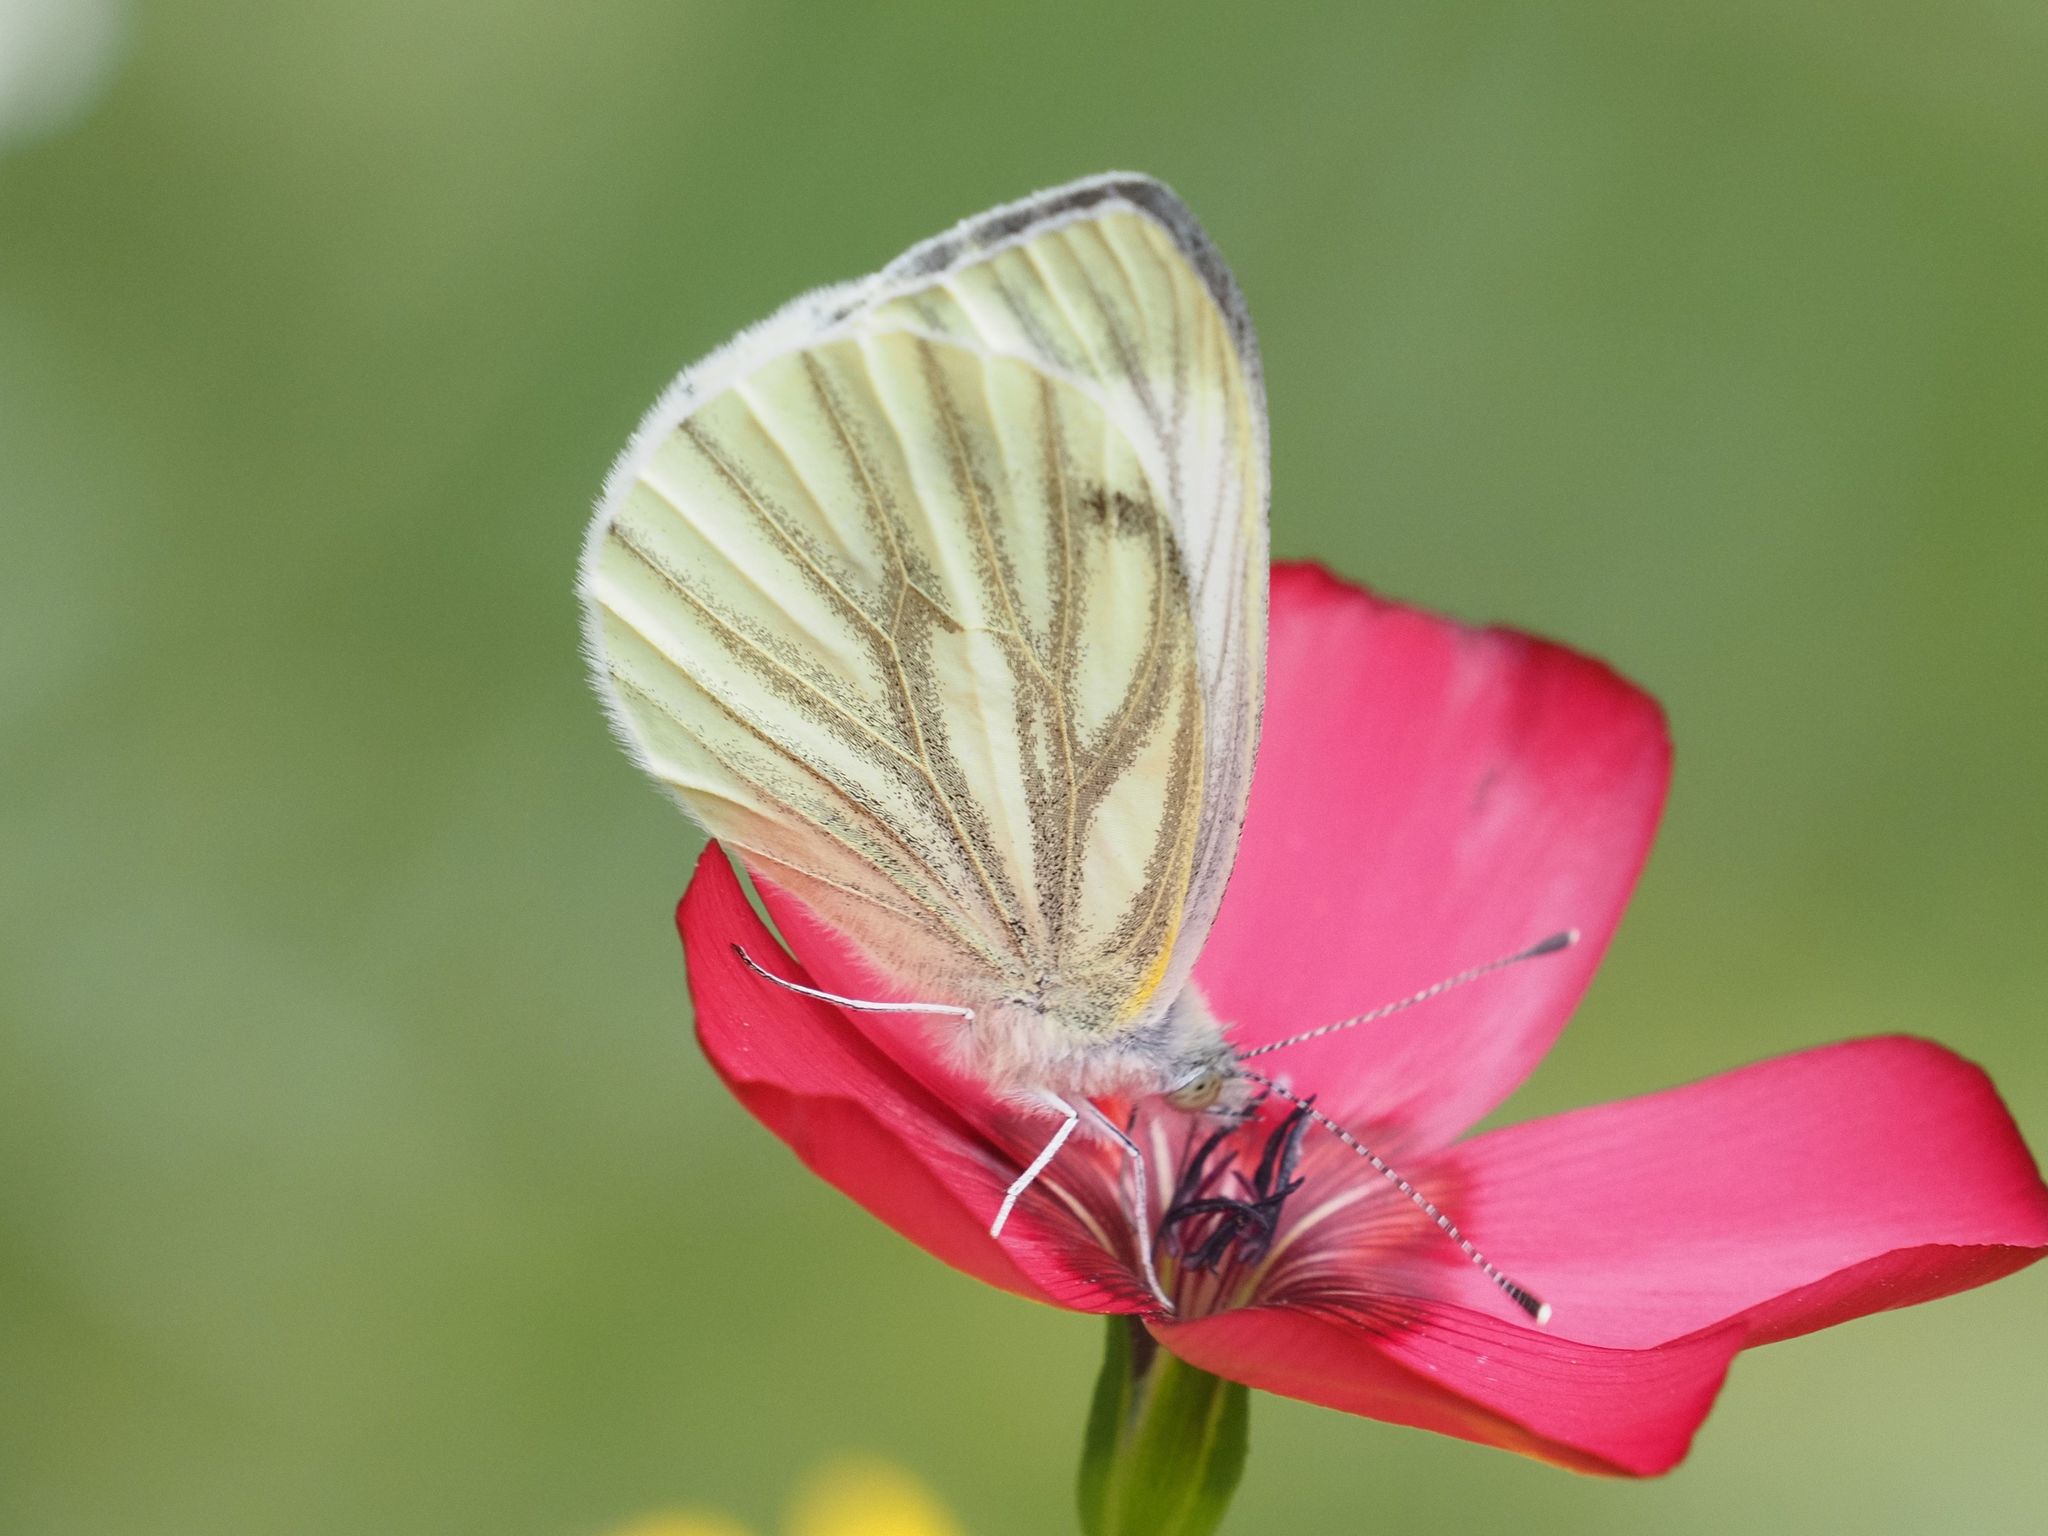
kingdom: Animalia
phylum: Arthropoda
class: Insecta
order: Lepidoptera
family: Pieridae
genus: Pieris
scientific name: Pieris napi
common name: Green-veined white
